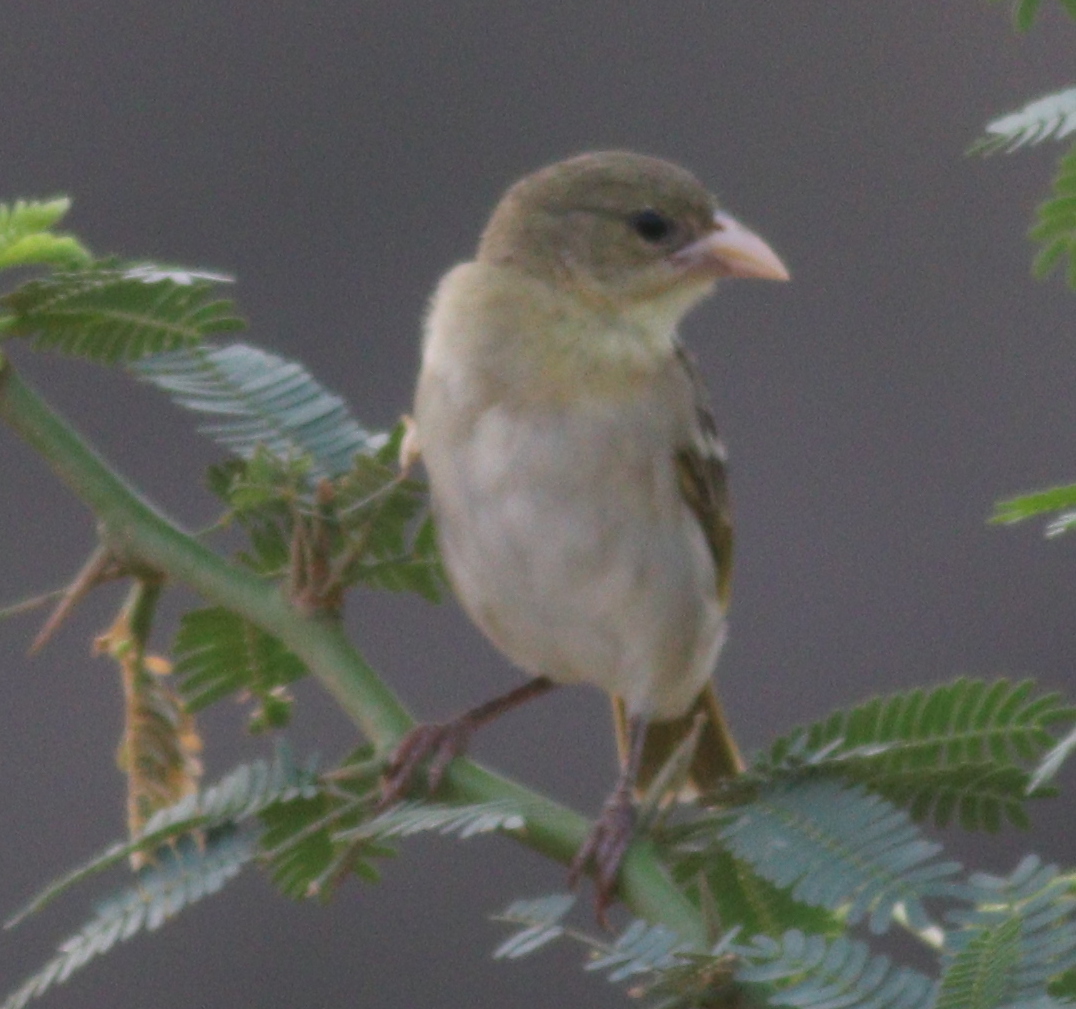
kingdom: Animalia
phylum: Chordata
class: Aves
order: Passeriformes
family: Ploceidae
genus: Ploceus
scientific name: Ploceus galbula
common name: Rüppell's weaver
